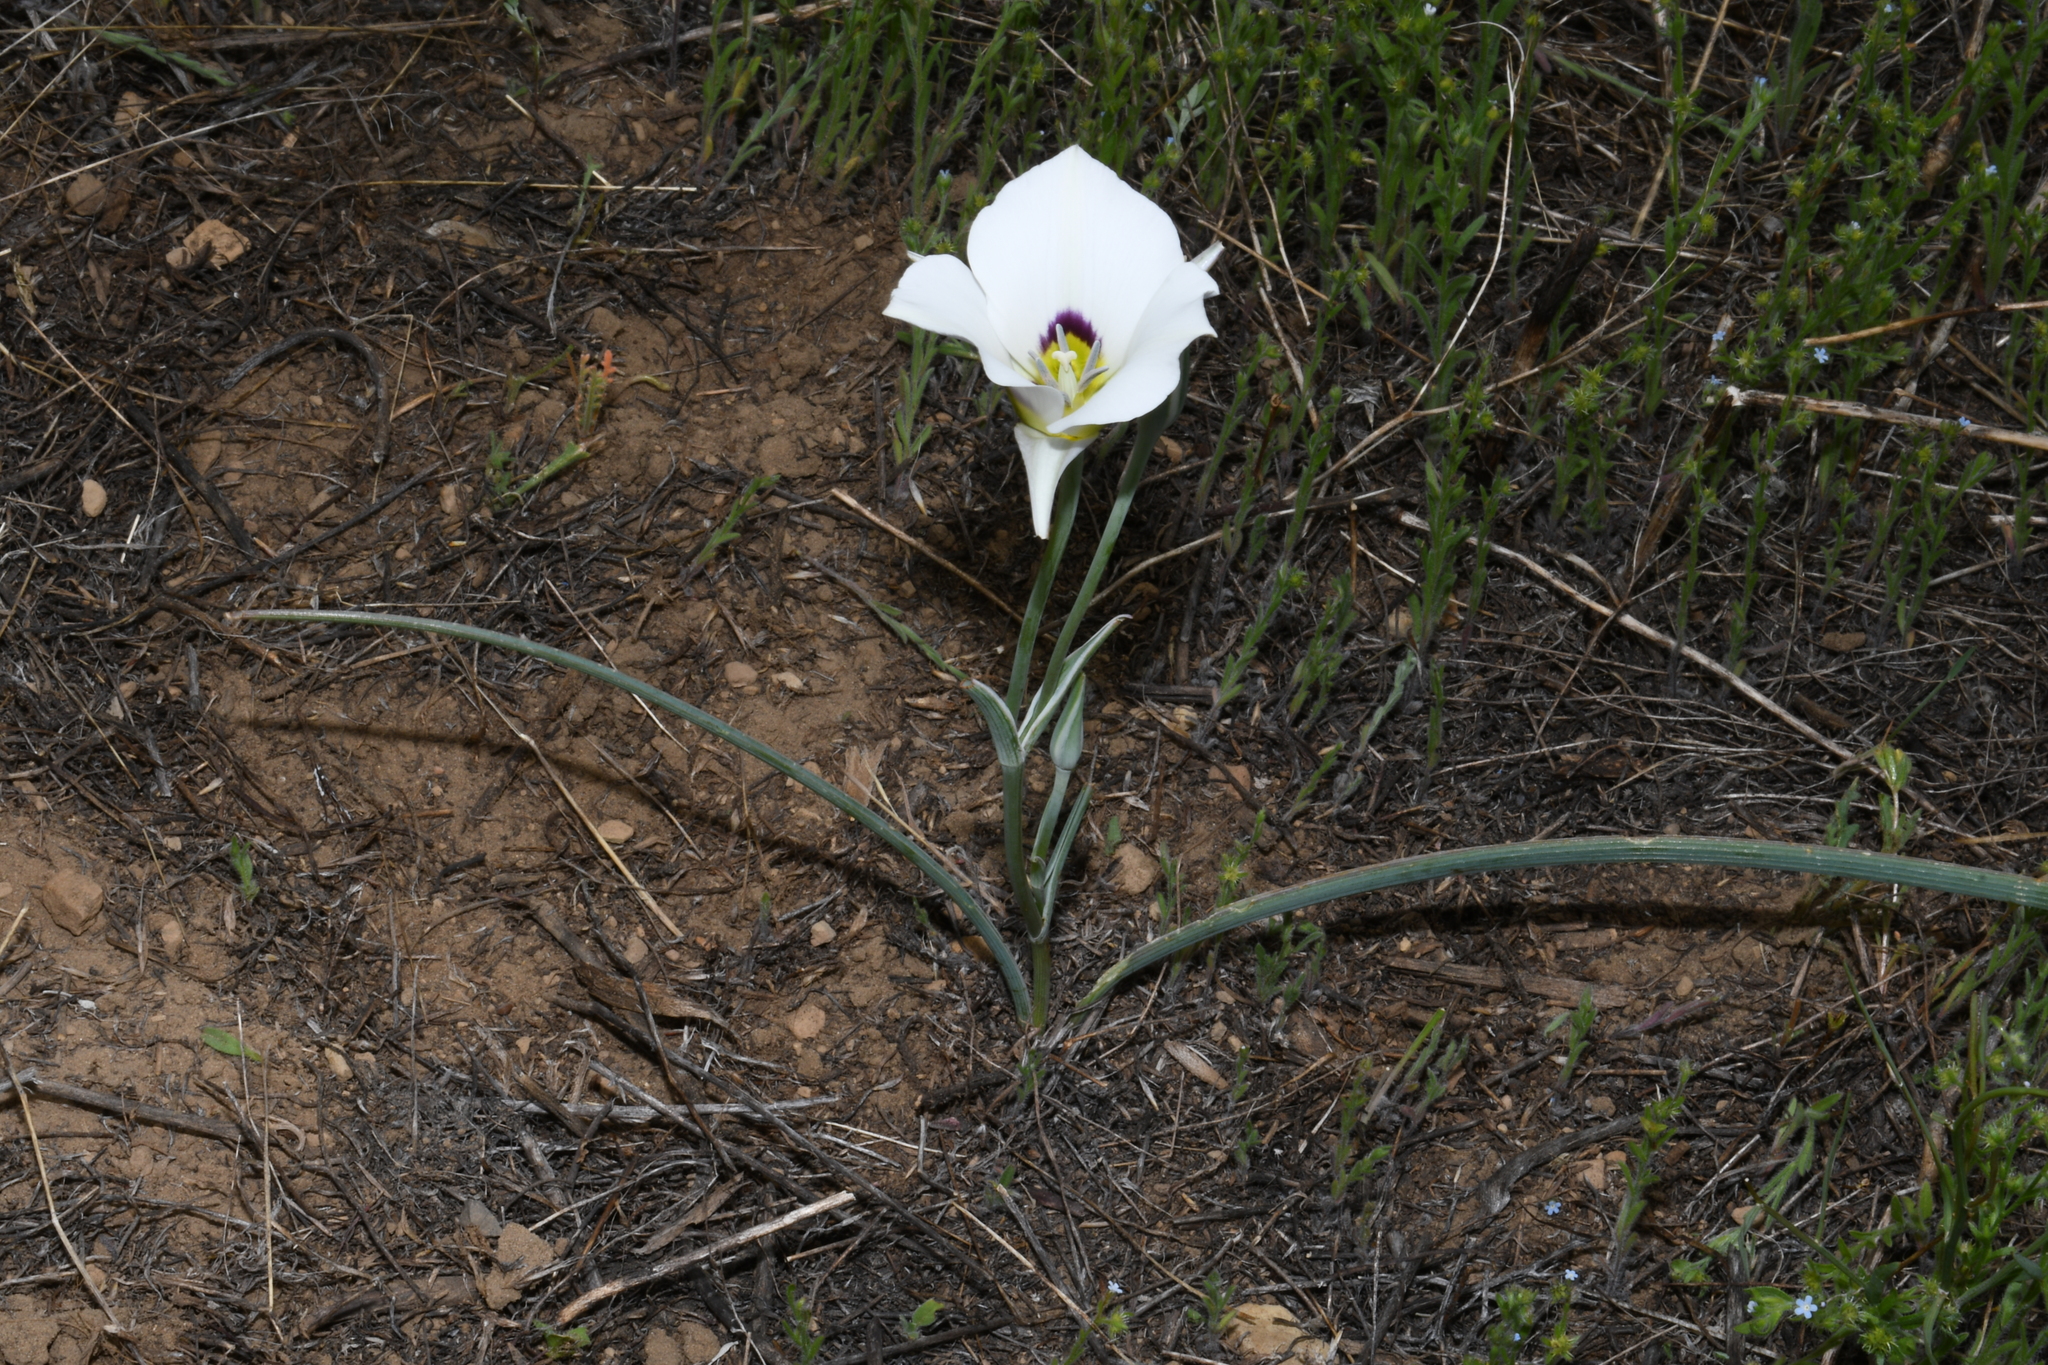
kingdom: Plantae
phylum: Tracheophyta
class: Liliopsida
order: Liliales
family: Liliaceae
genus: Calochortus
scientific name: Calochortus bruneaunis
